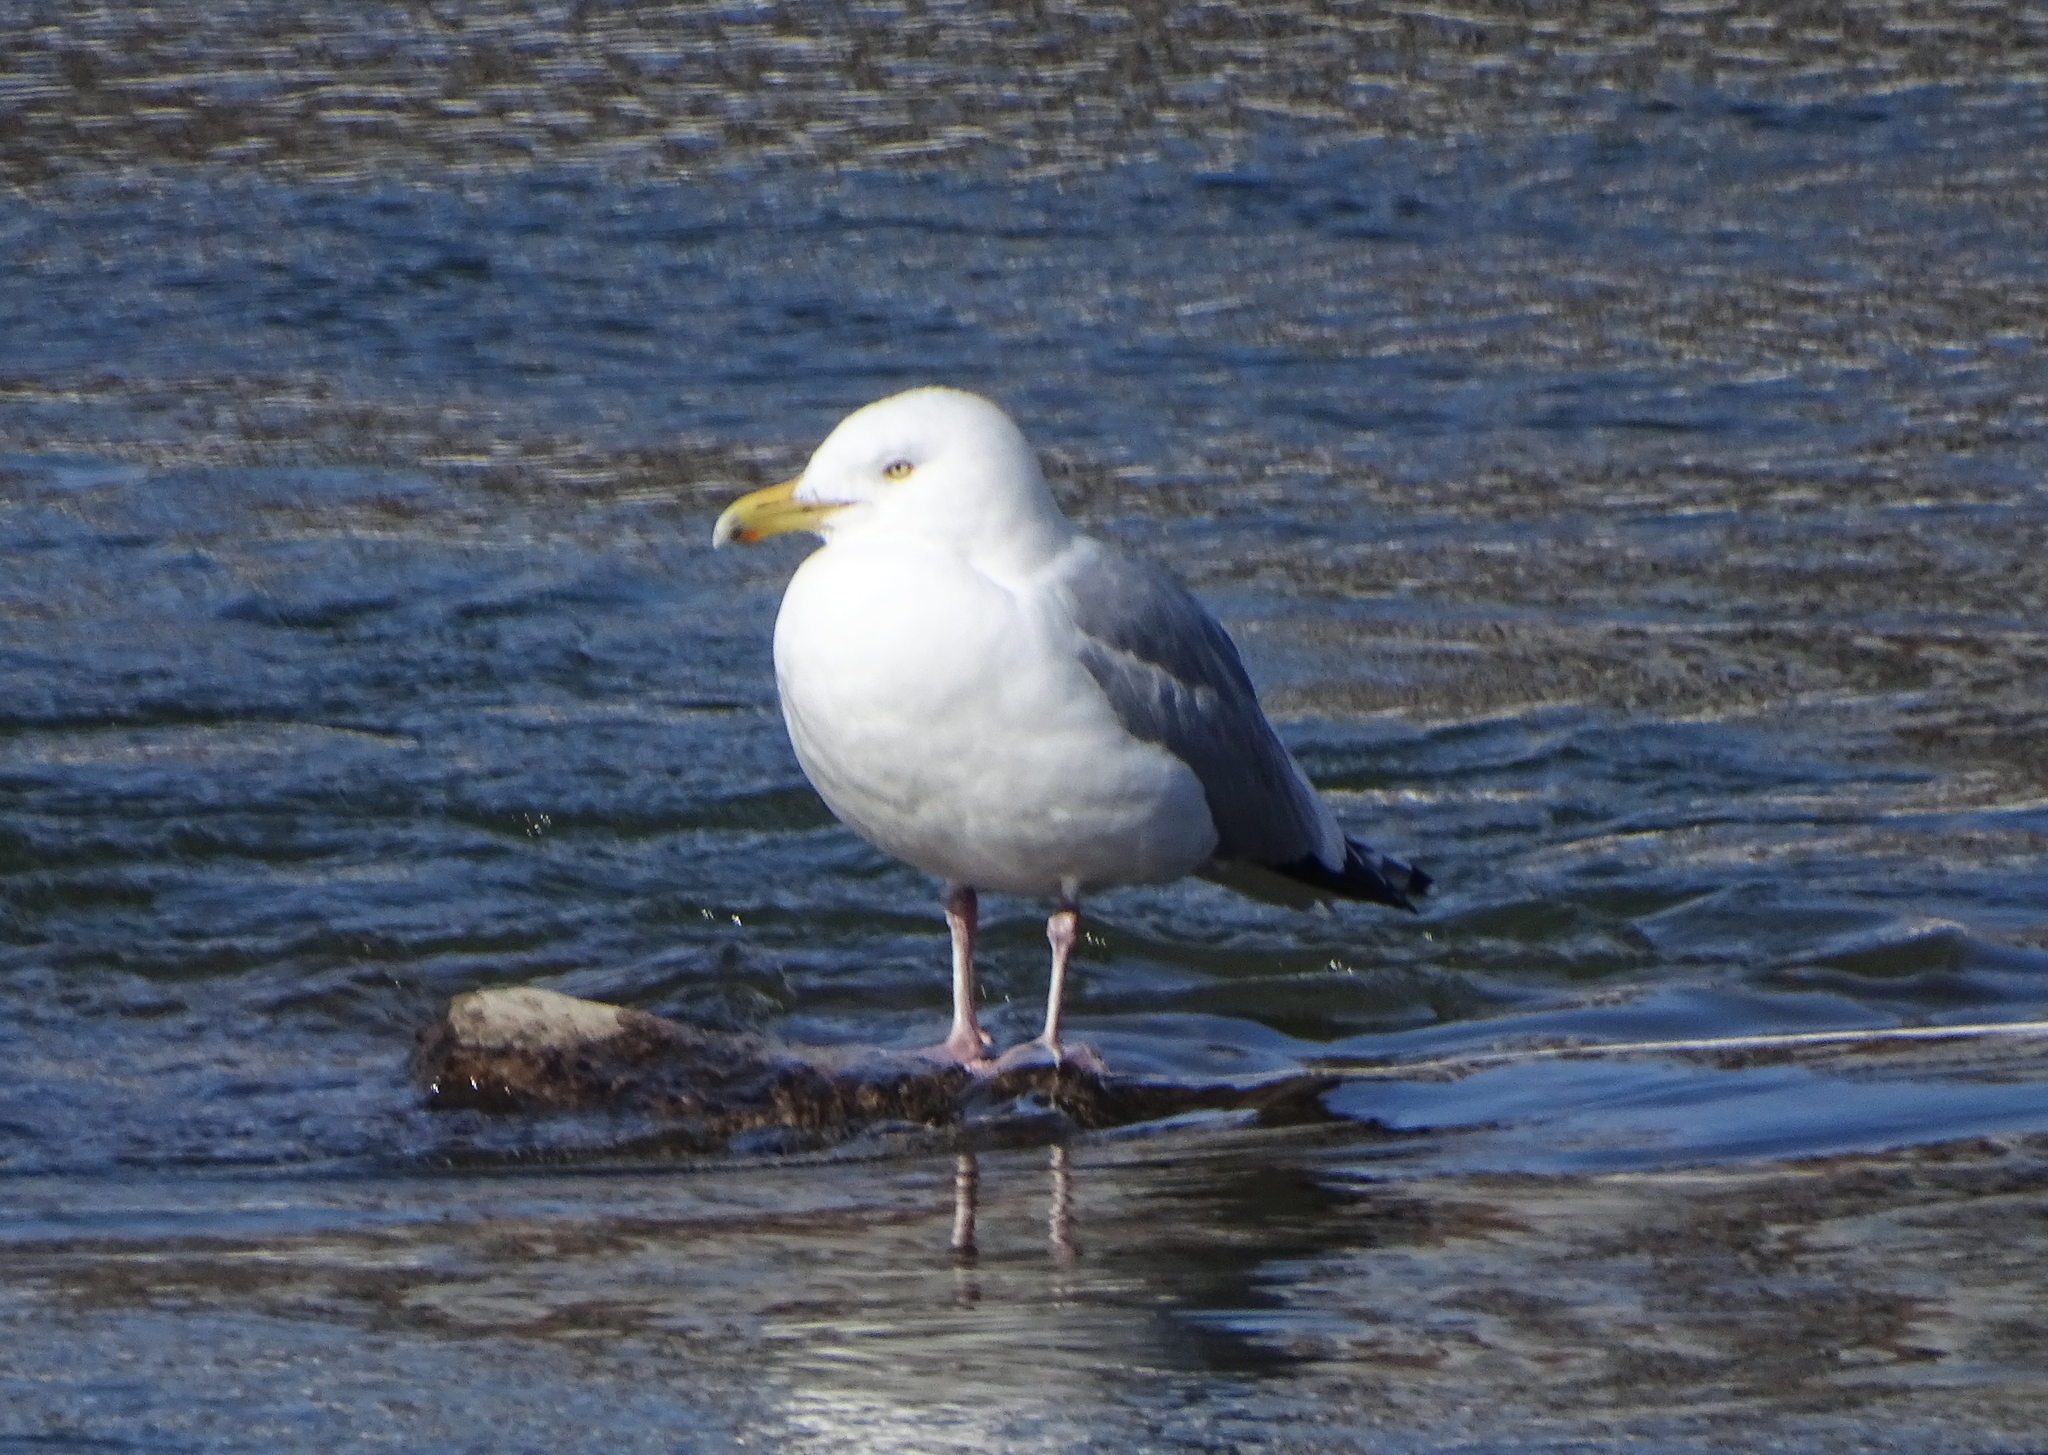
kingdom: Animalia
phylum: Chordata
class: Aves
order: Charadriiformes
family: Laridae
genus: Larus
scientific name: Larus argentatus
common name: Herring gull
